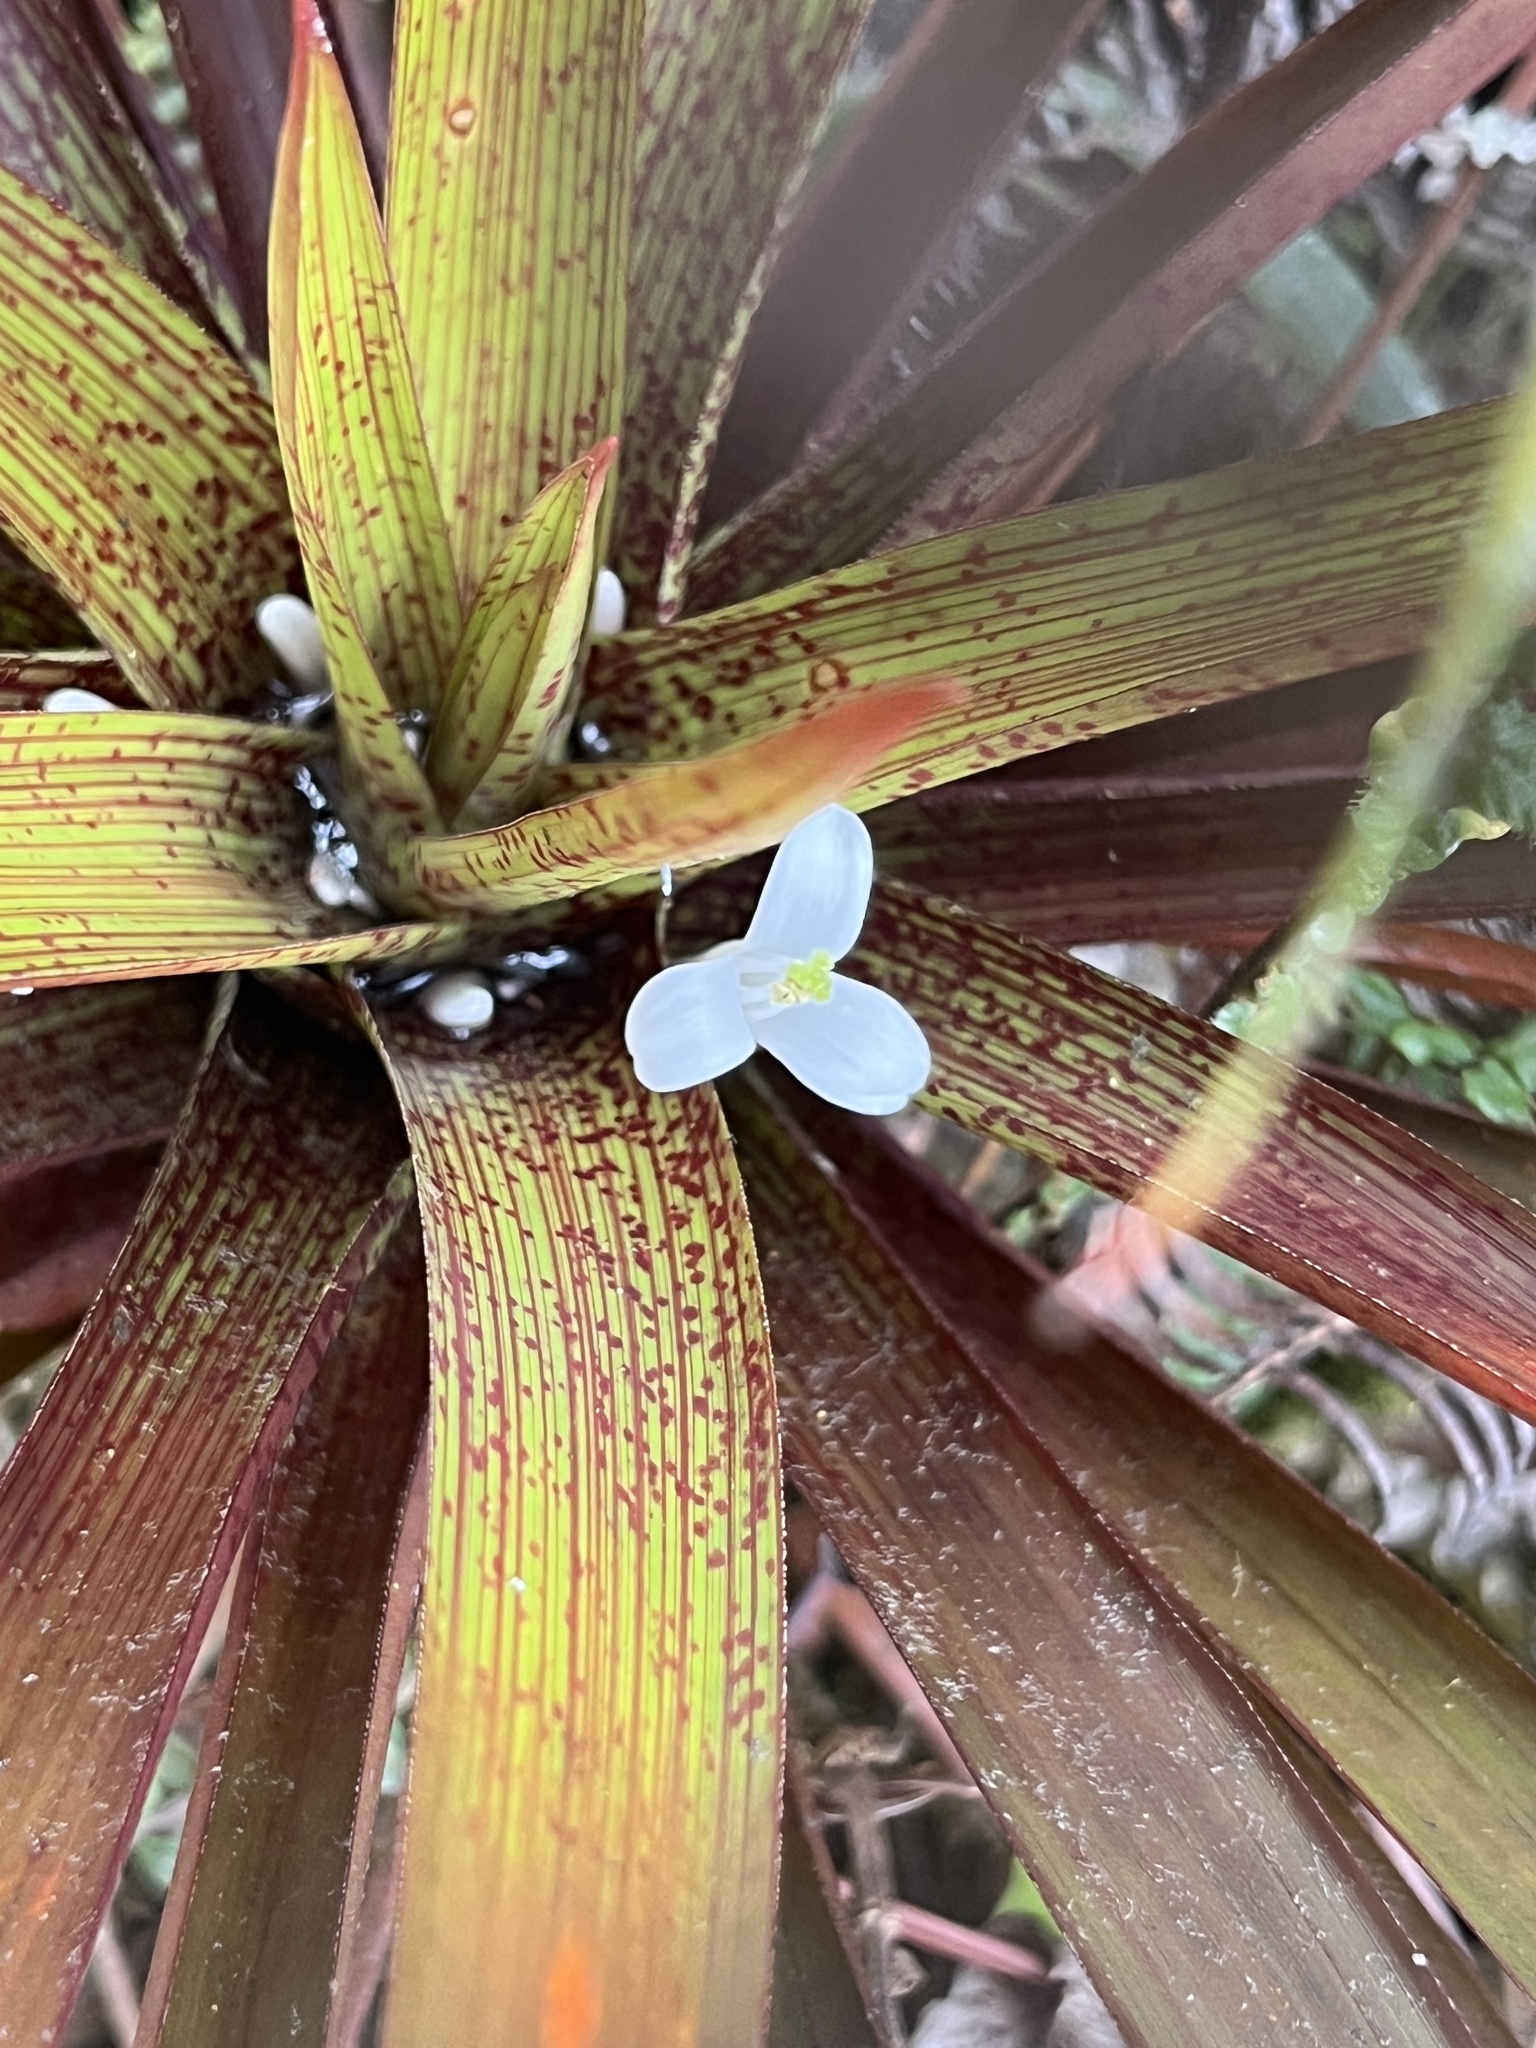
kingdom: Plantae
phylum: Tracheophyta
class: Liliopsida
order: Poales
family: Bromeliaceae
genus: Guzmania
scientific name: Guzmania nidularioides
